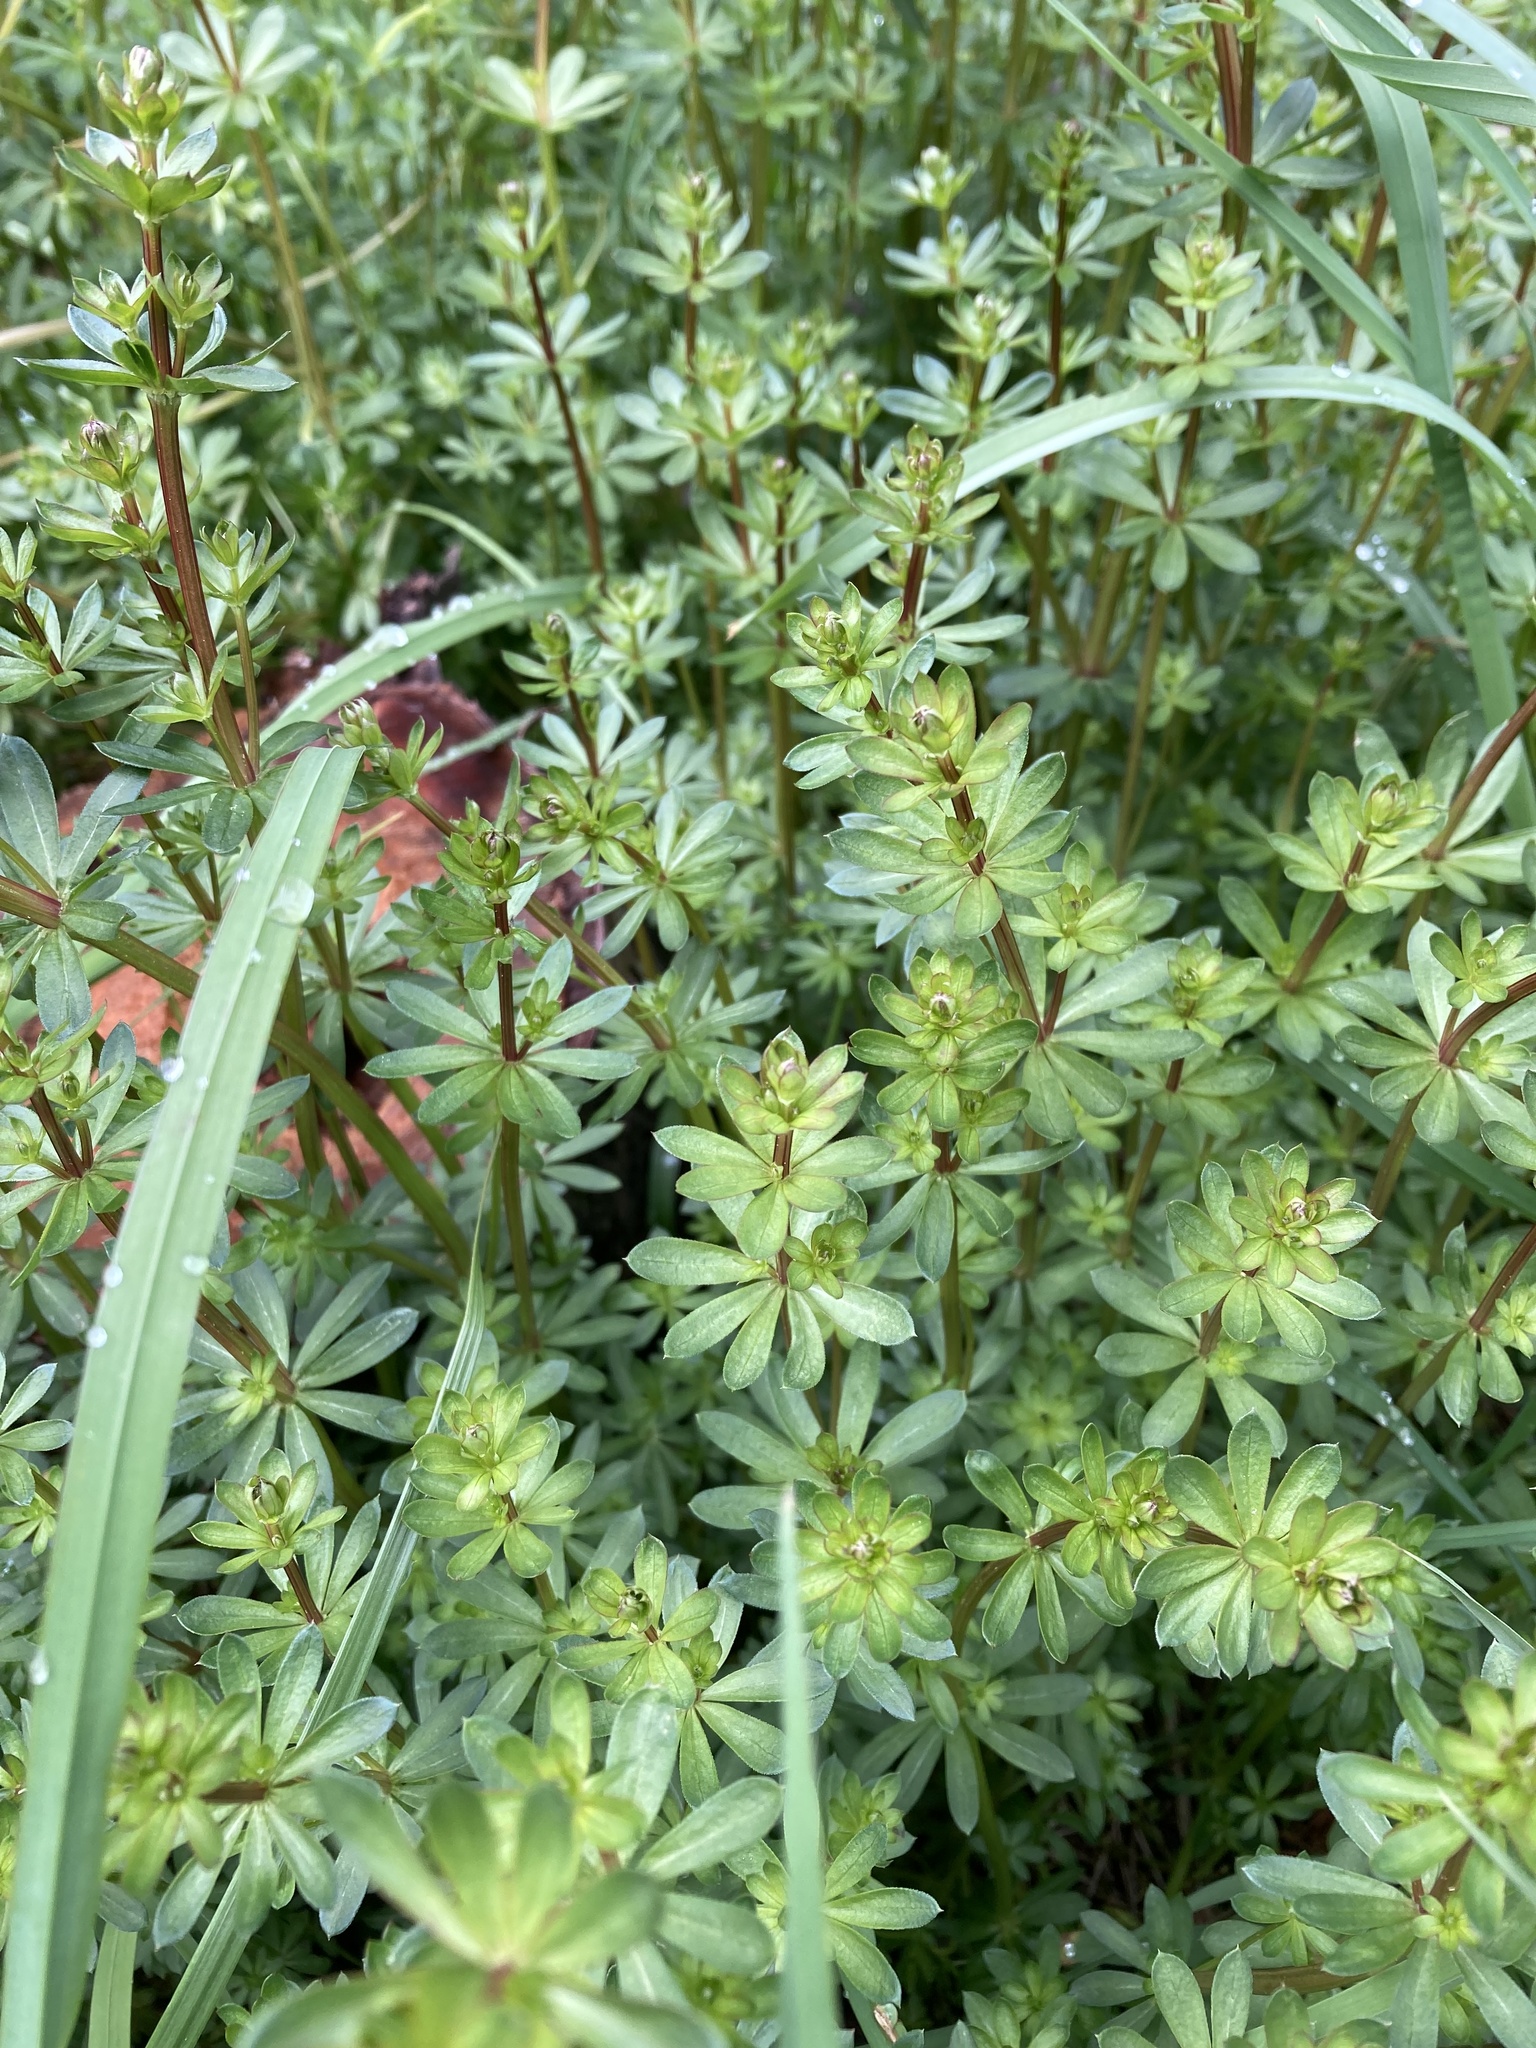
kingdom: Plantae
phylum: Tracheophyta
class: Magnoliopsida
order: Gentianales
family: Rubiaceae
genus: Galium
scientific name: Galium mollugo
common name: Hedge bedstraw
